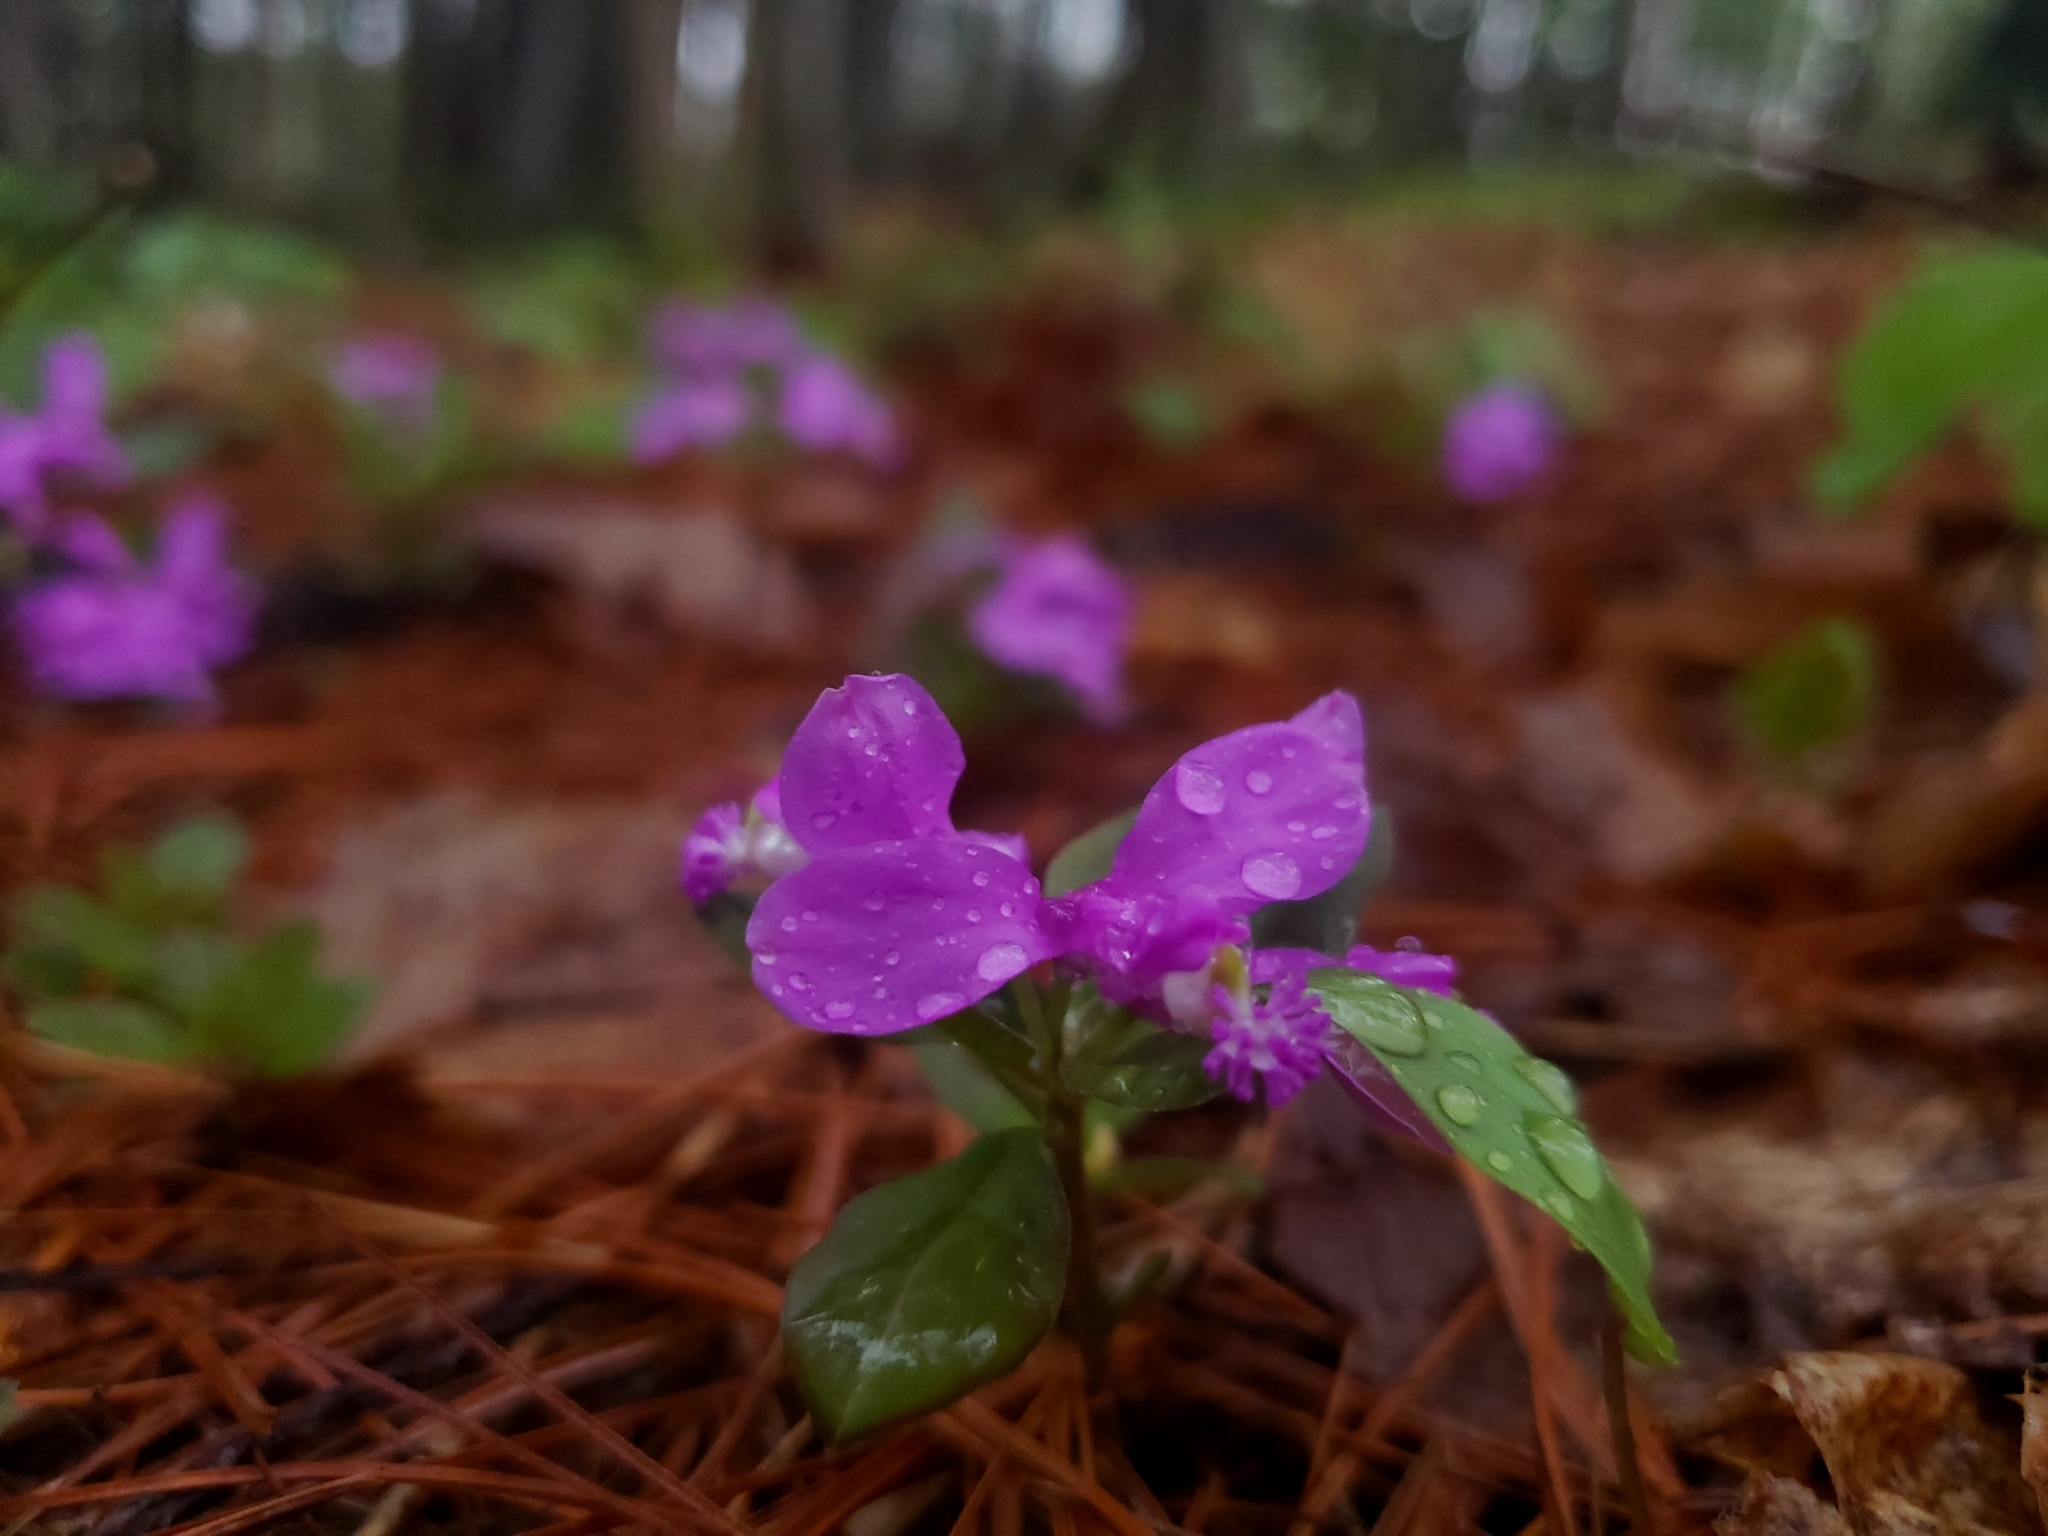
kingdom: Plantae
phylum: Tracheophyta
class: Magnoliopsida
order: Fabales
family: Polygalaceae
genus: Polygaloides
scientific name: Polygaloides paucifolia
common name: Bird-on-the-wing
